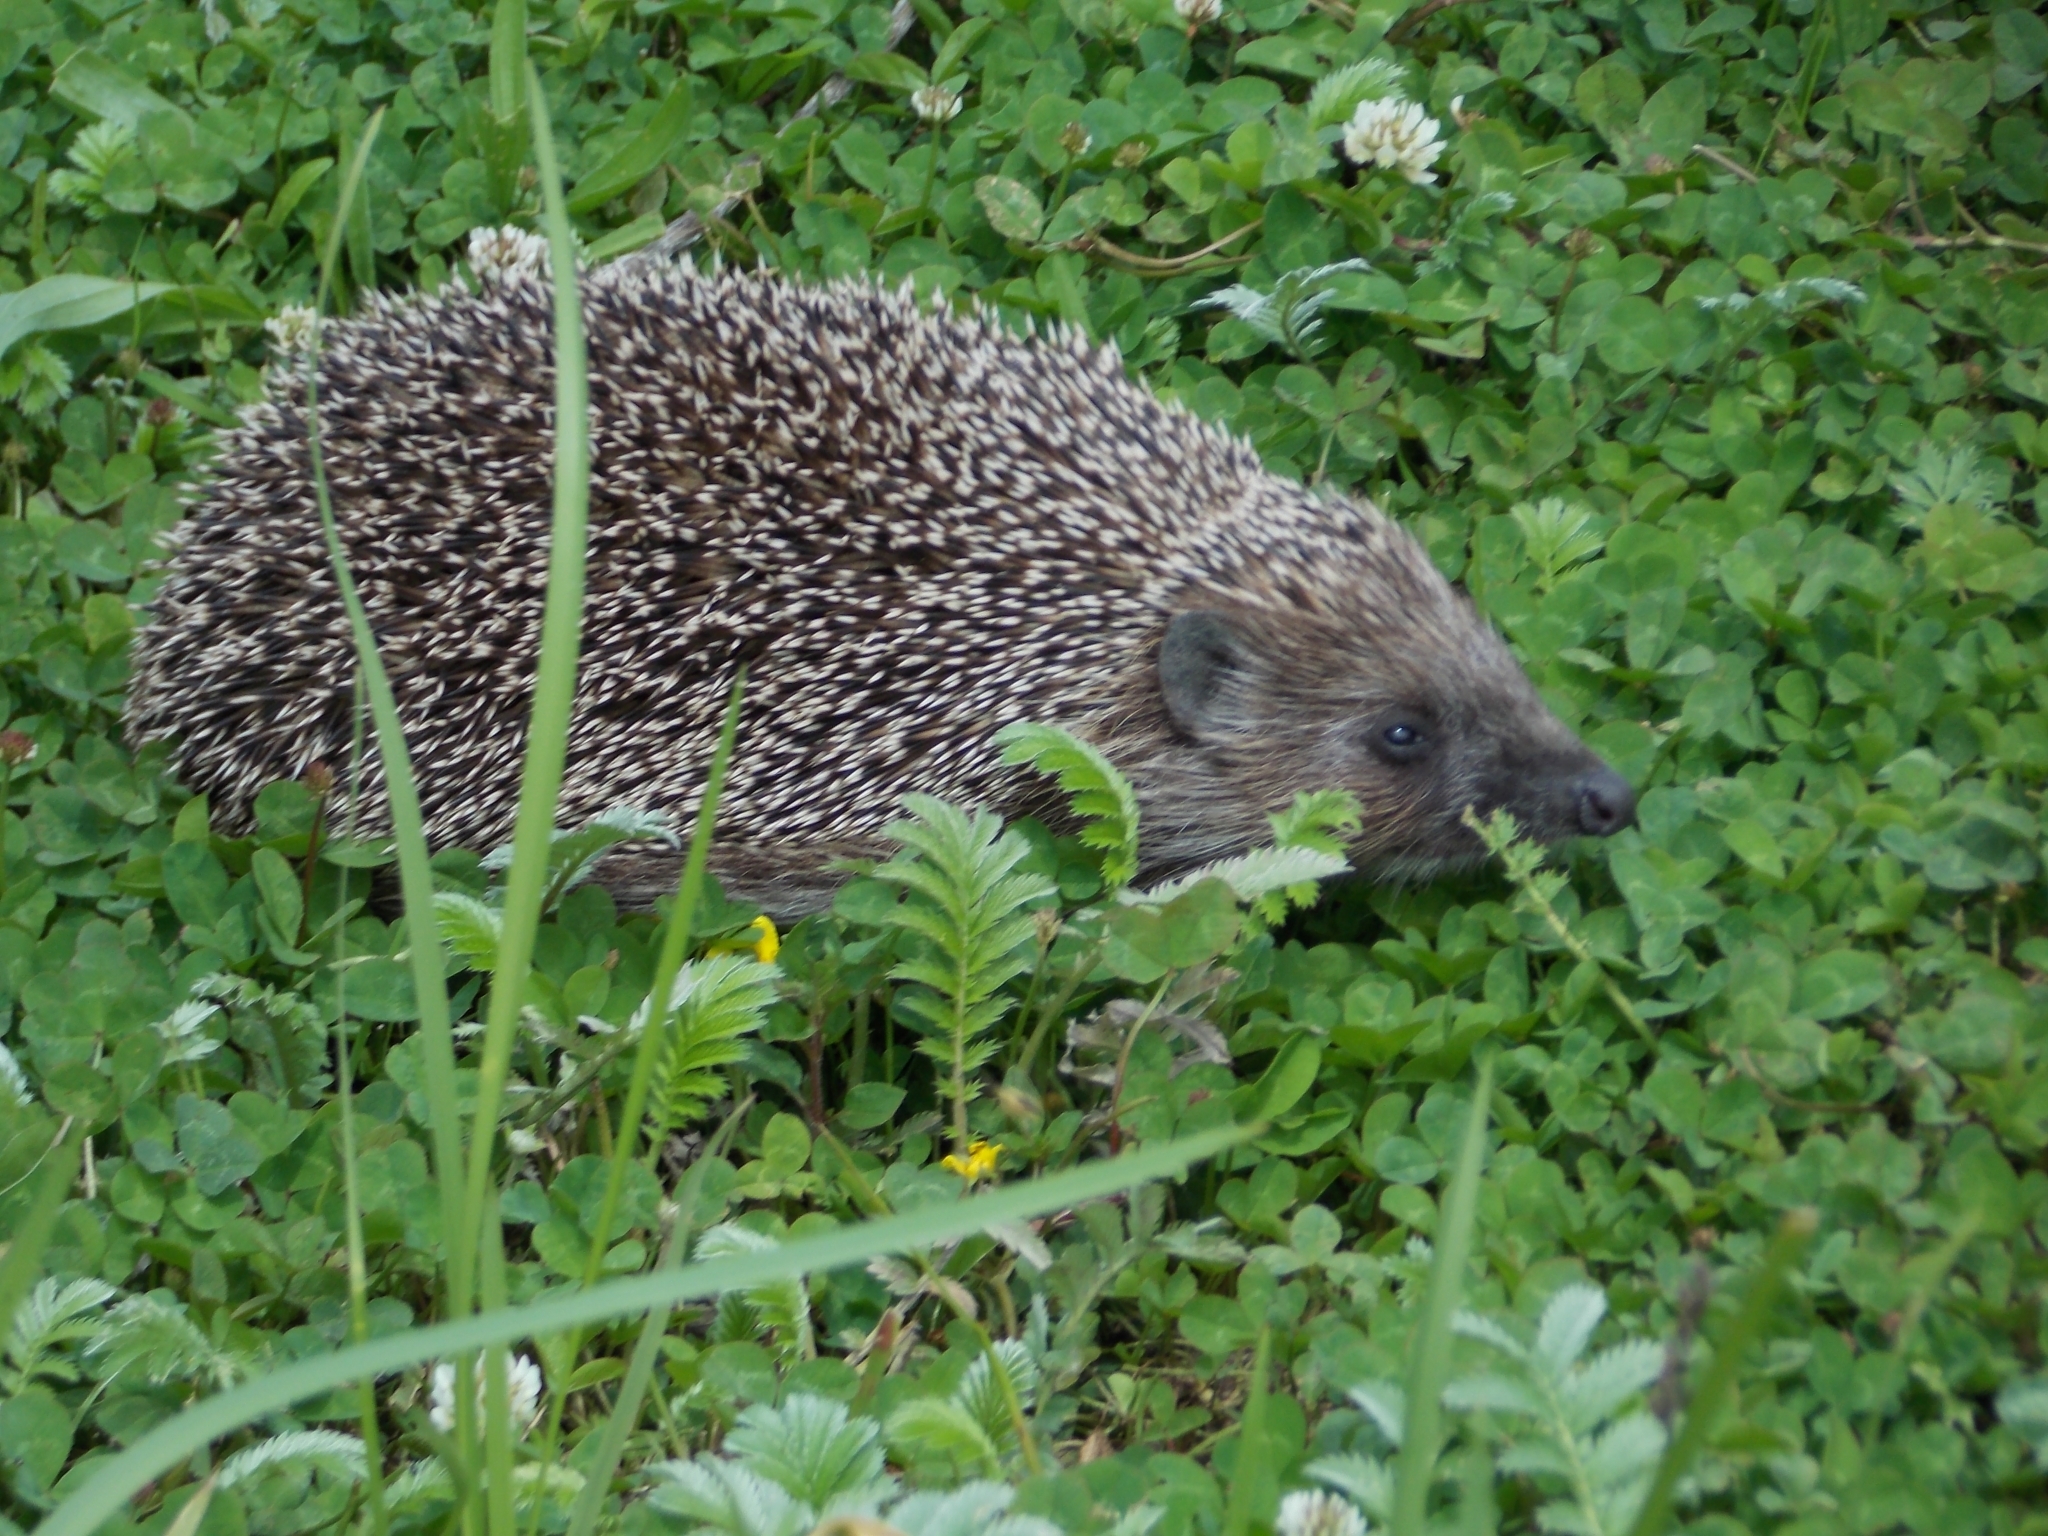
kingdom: Animalia
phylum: Chordata
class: Mammalia
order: Erinaceomorpha
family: Erinaceidae
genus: Erinaceus
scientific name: Erinaceus roumanicus
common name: Northern white-breasted hedgehog
